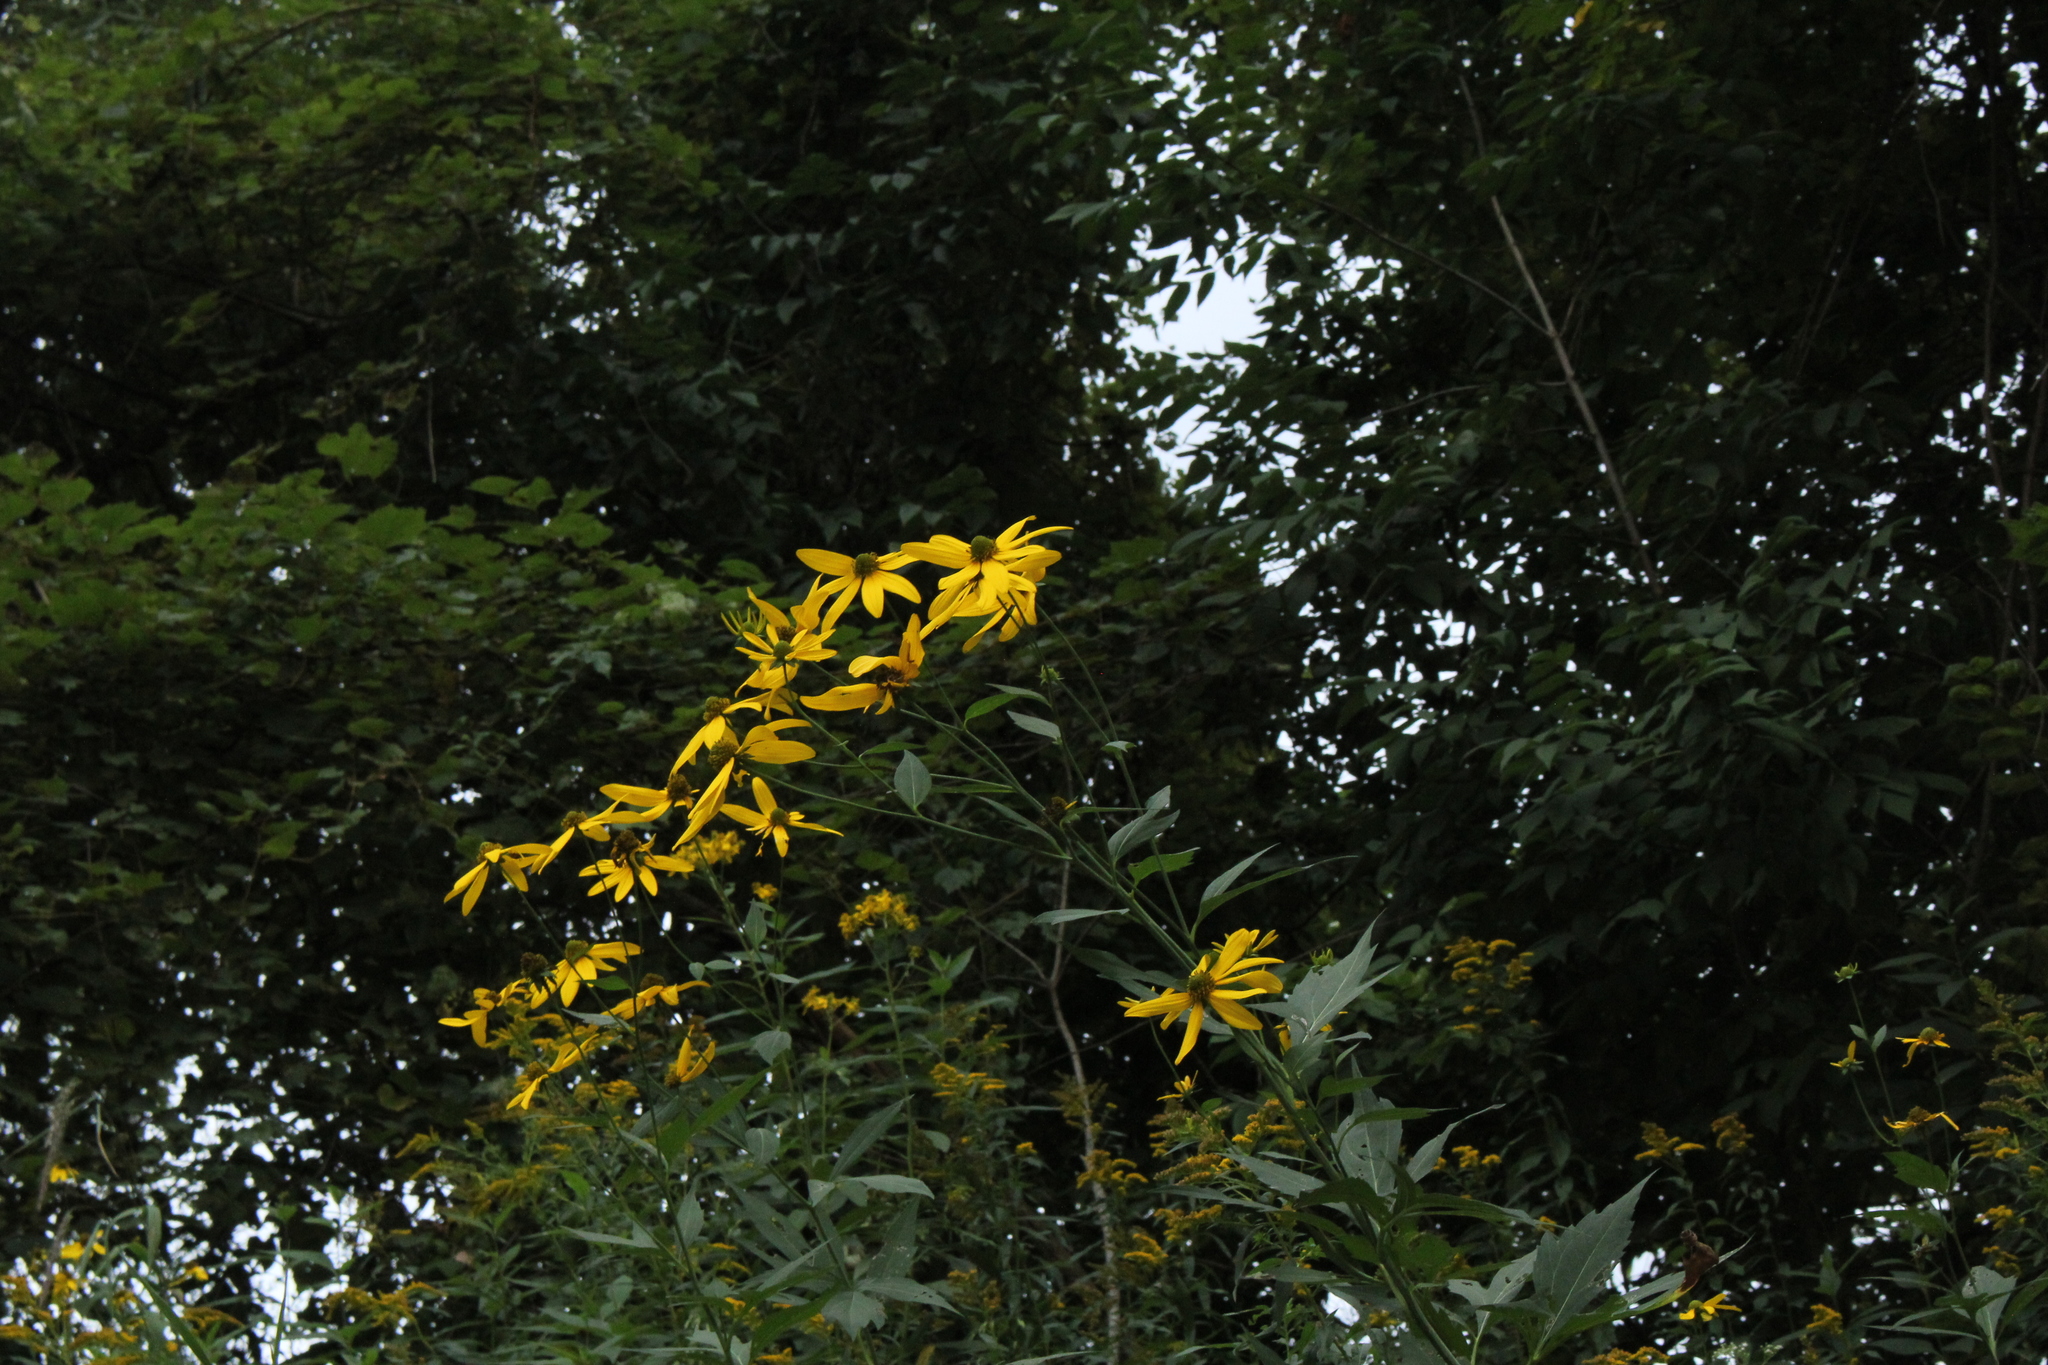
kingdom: Plantae
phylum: Tracheophyta
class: Magnoliopsida
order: Asterales
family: Asteraceae
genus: Rudbeckia
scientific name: Rudbeckia laciniata
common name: Coneflower
